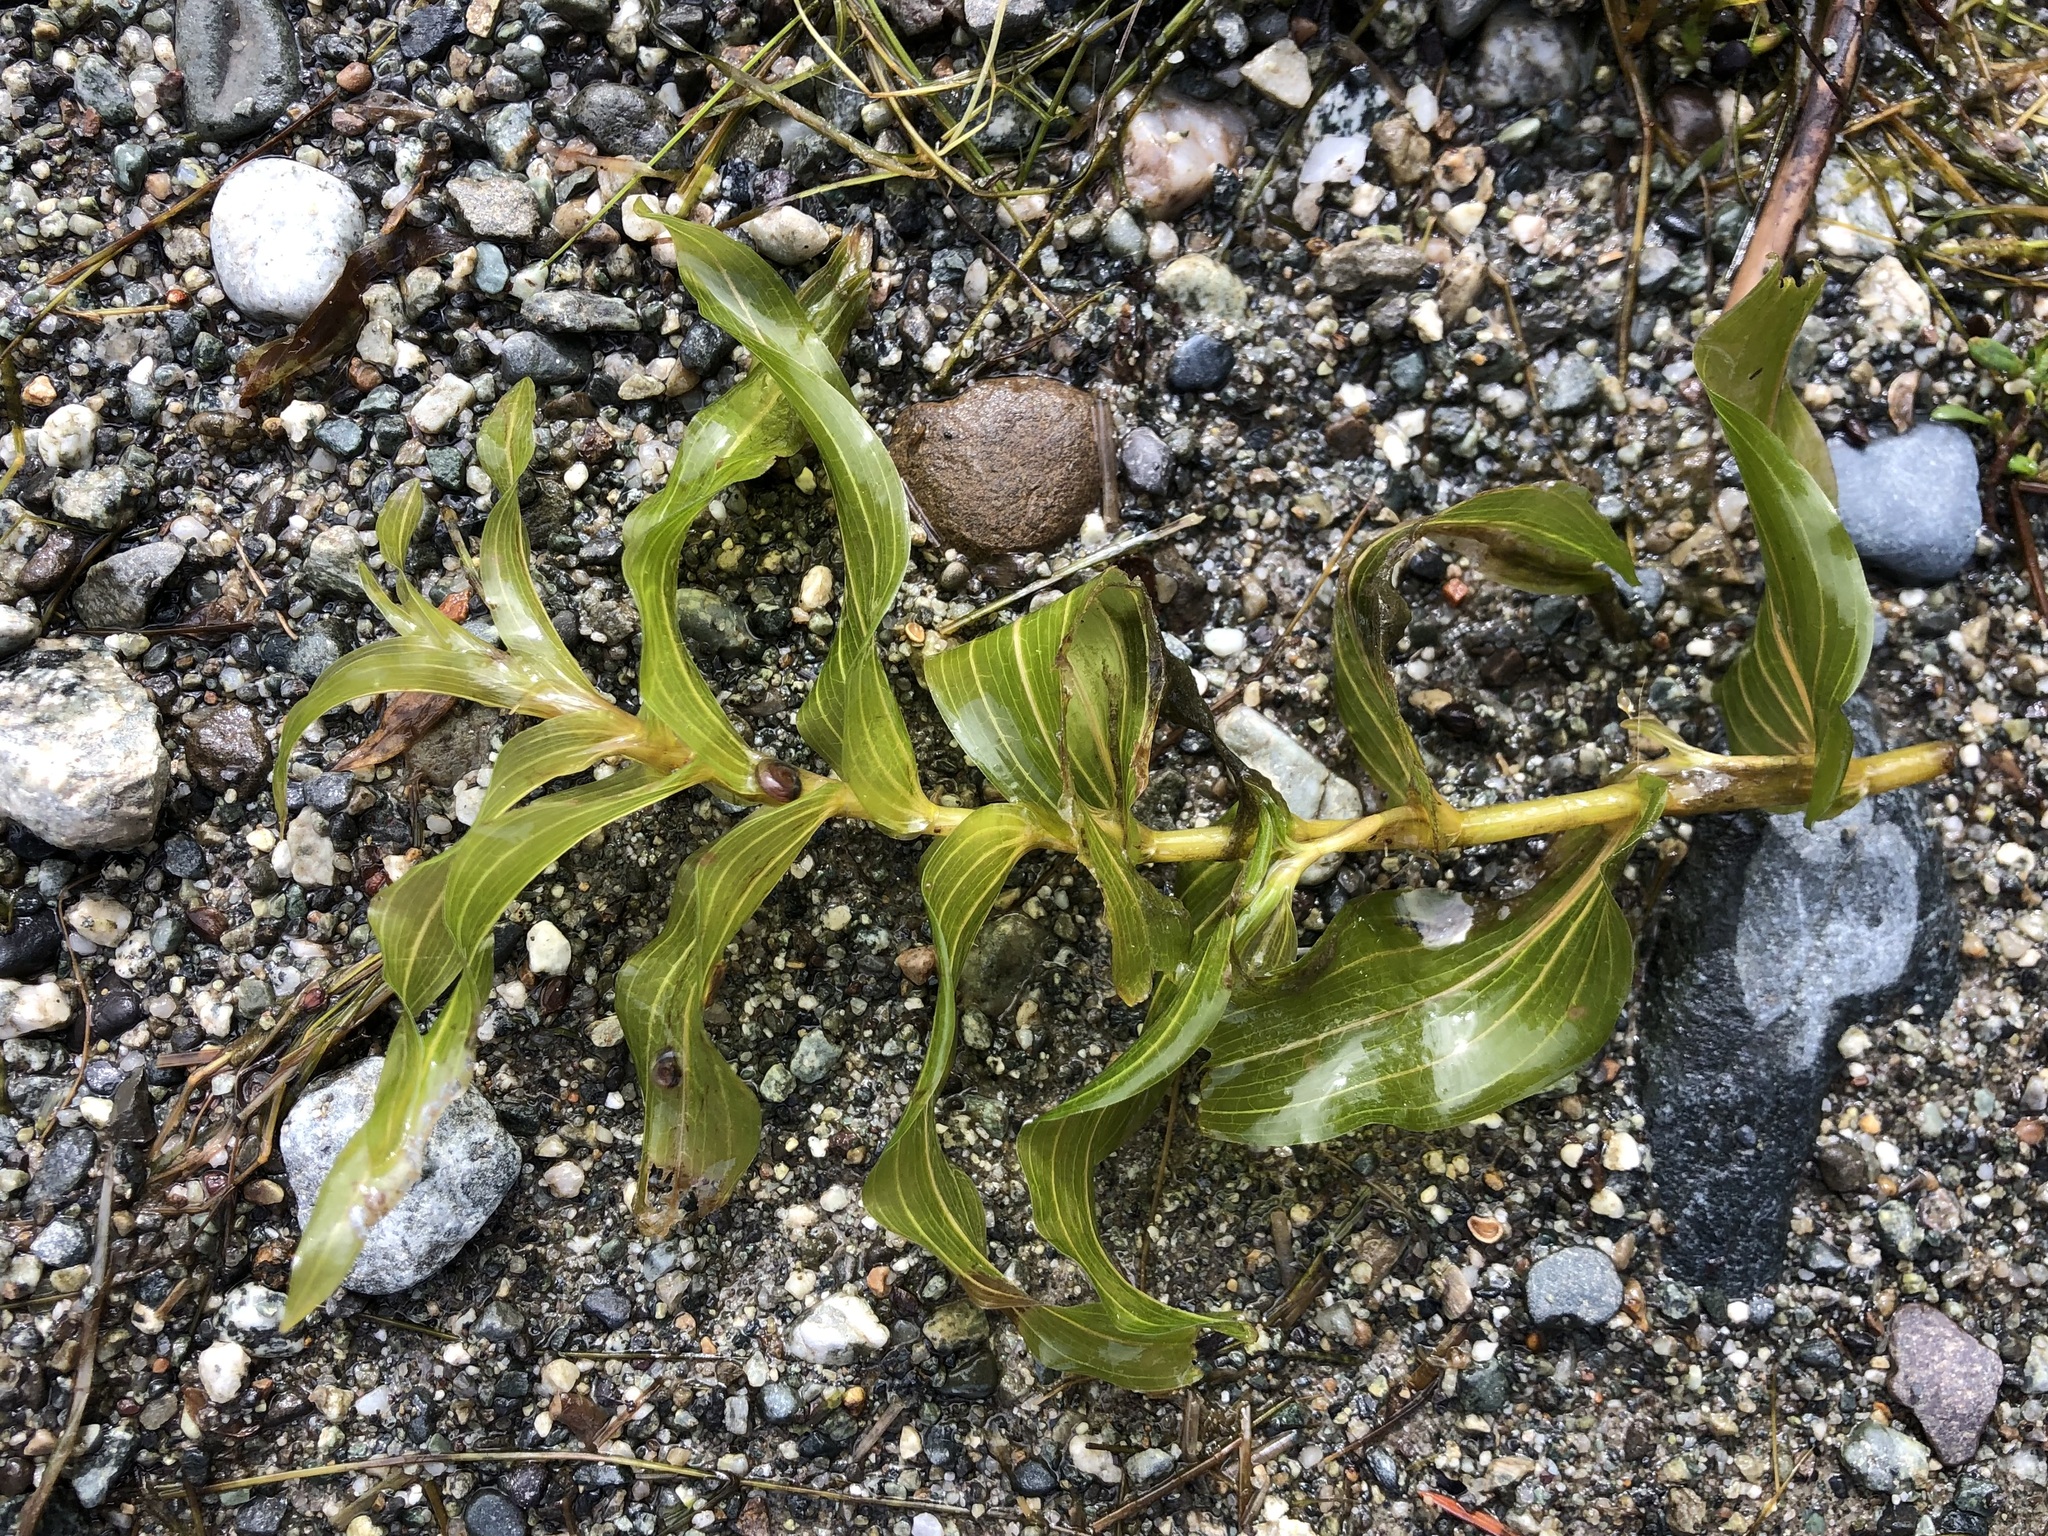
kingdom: Plantae
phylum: Tracheophyta
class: Liliopsida
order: Alismatales
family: Potamogetonaceae
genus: Potamogeton
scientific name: Potamogeton richardsonii
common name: Richardson's pondweed
